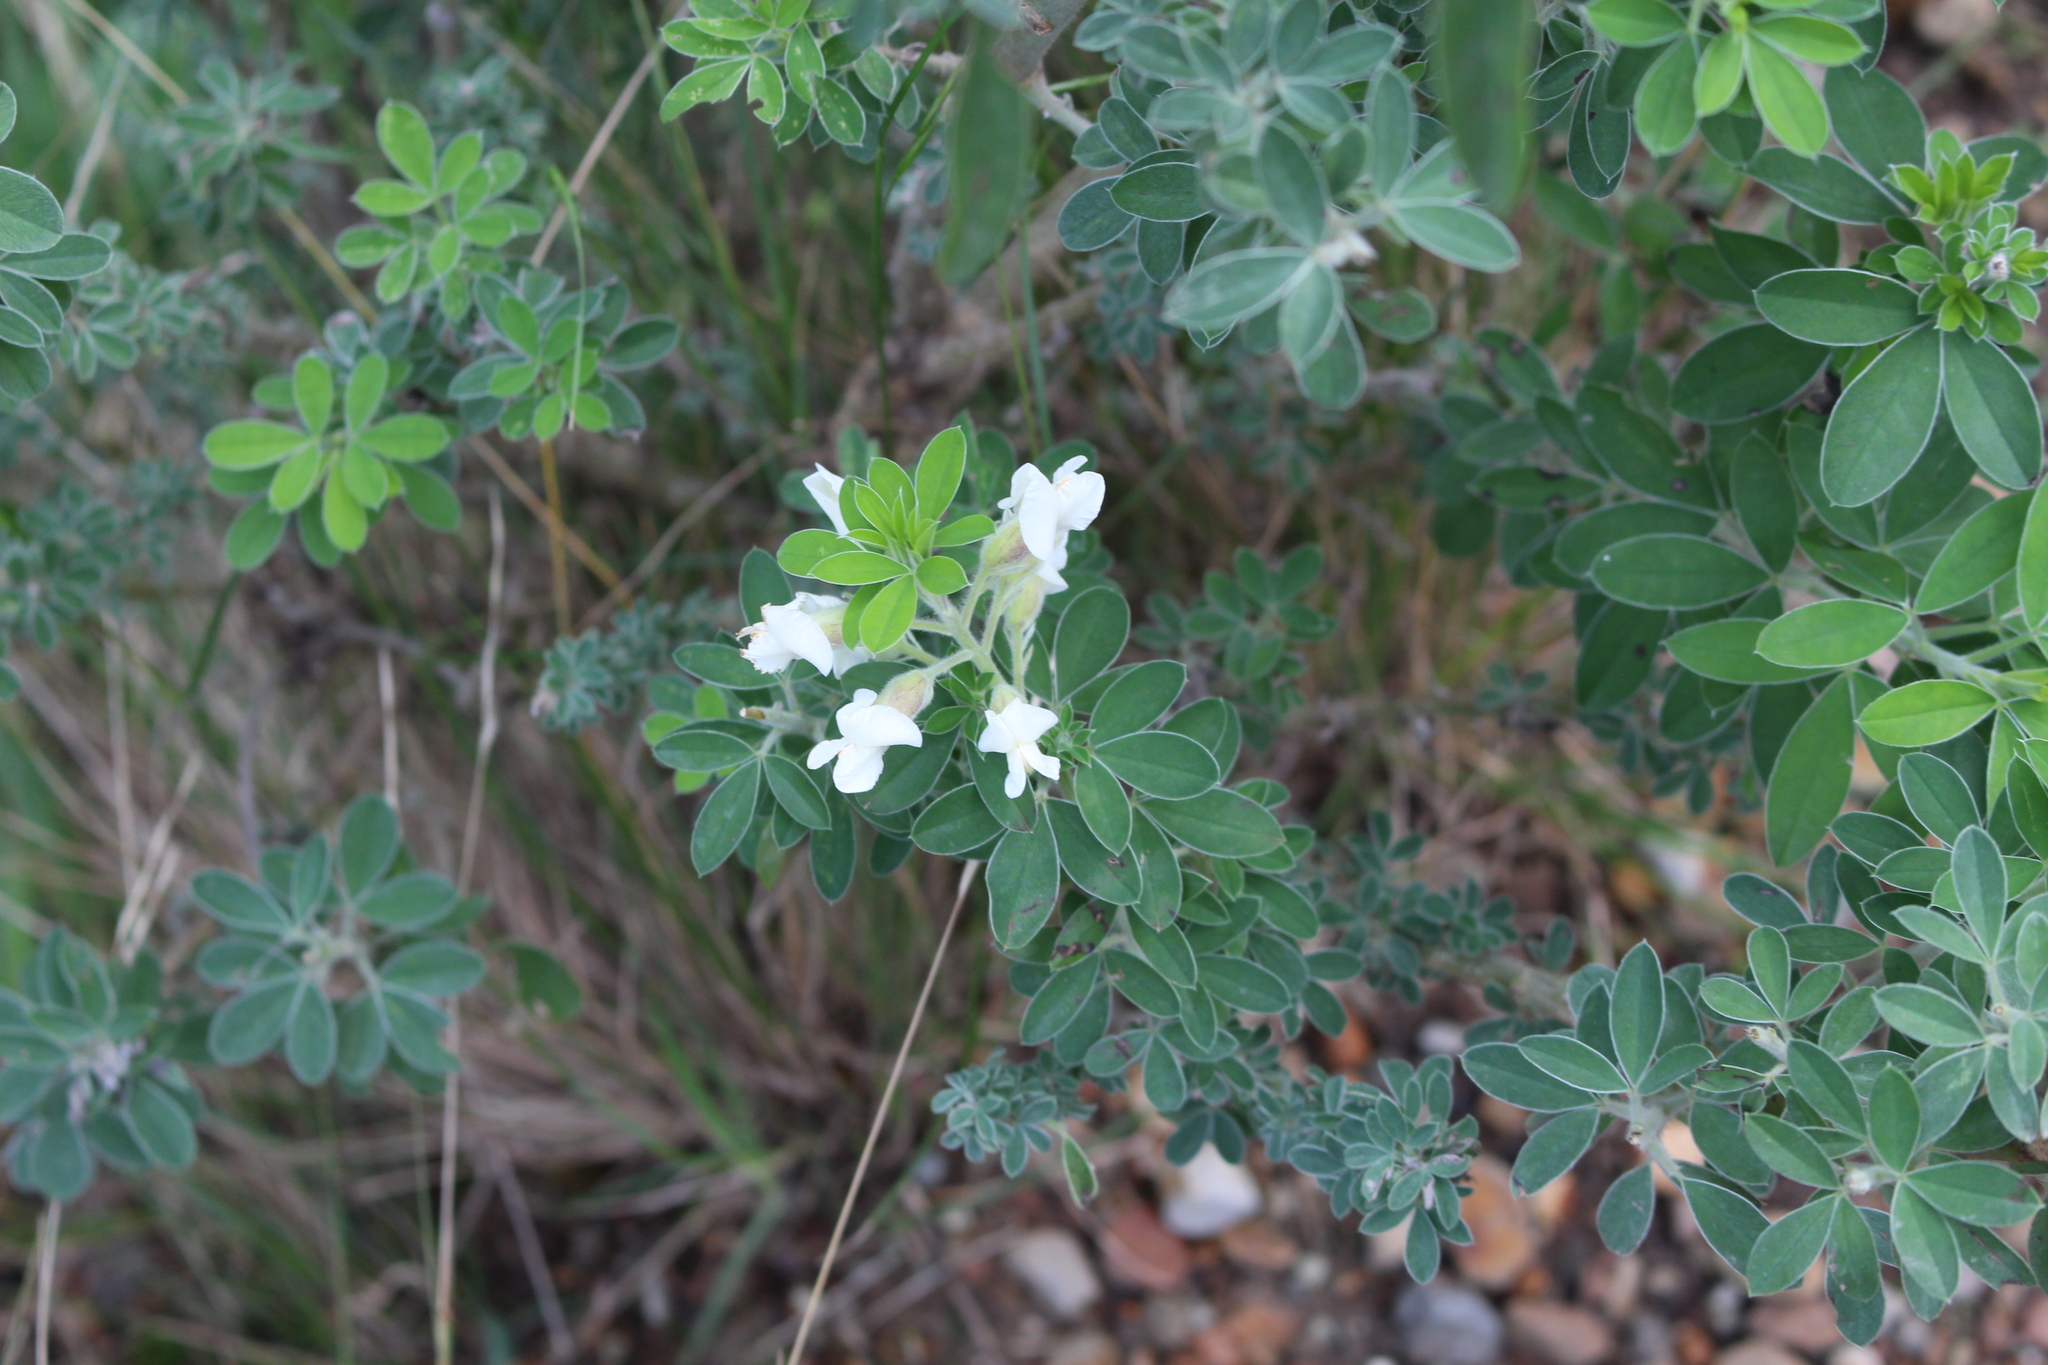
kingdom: Plantae
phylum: Tracheophyta
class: Magnoliopsida
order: Fabales
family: Fabaceae
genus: Chamaecytisus
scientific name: Chamaecytisus prolifer
